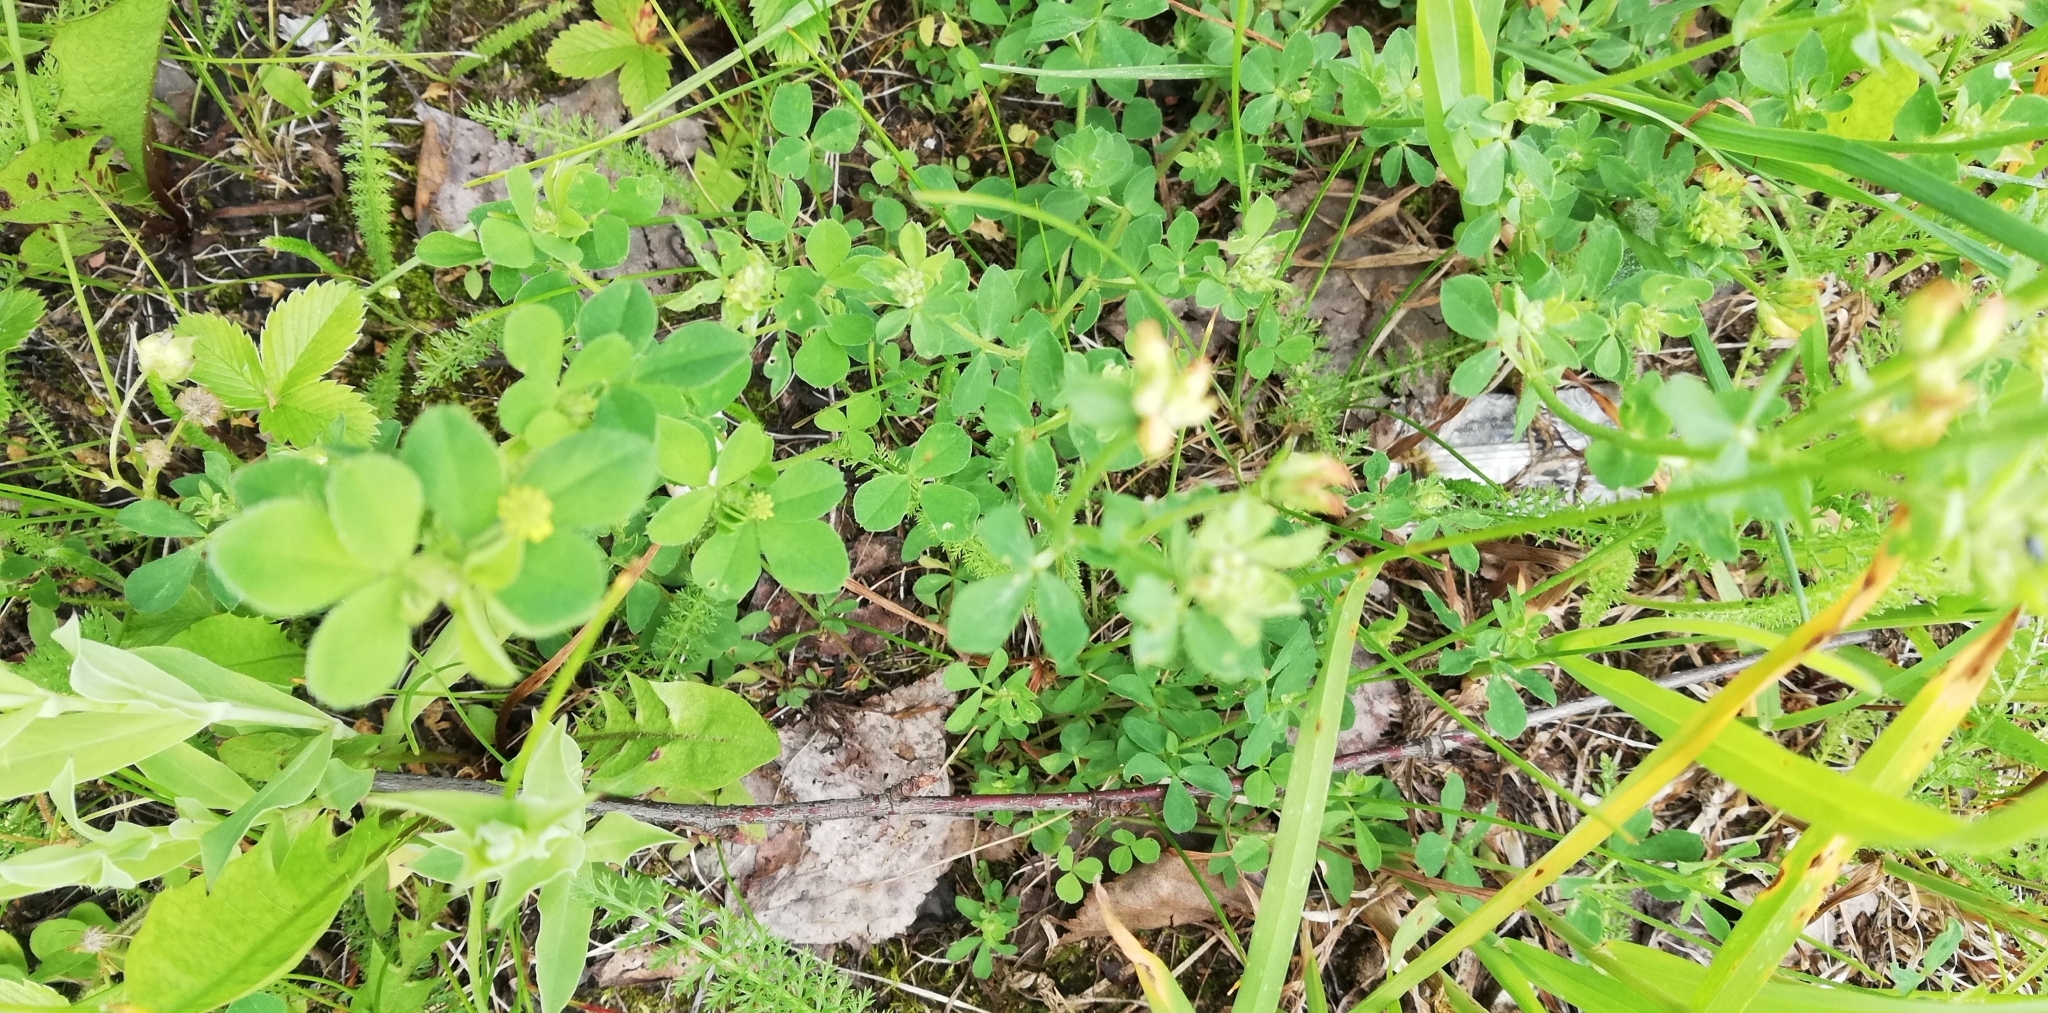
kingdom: Plantae
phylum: Tracheophyta
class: Magnoliopsida
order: Fabales
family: Fabaceae
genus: Medicago
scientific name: Medicago lupulina
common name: Black medick
